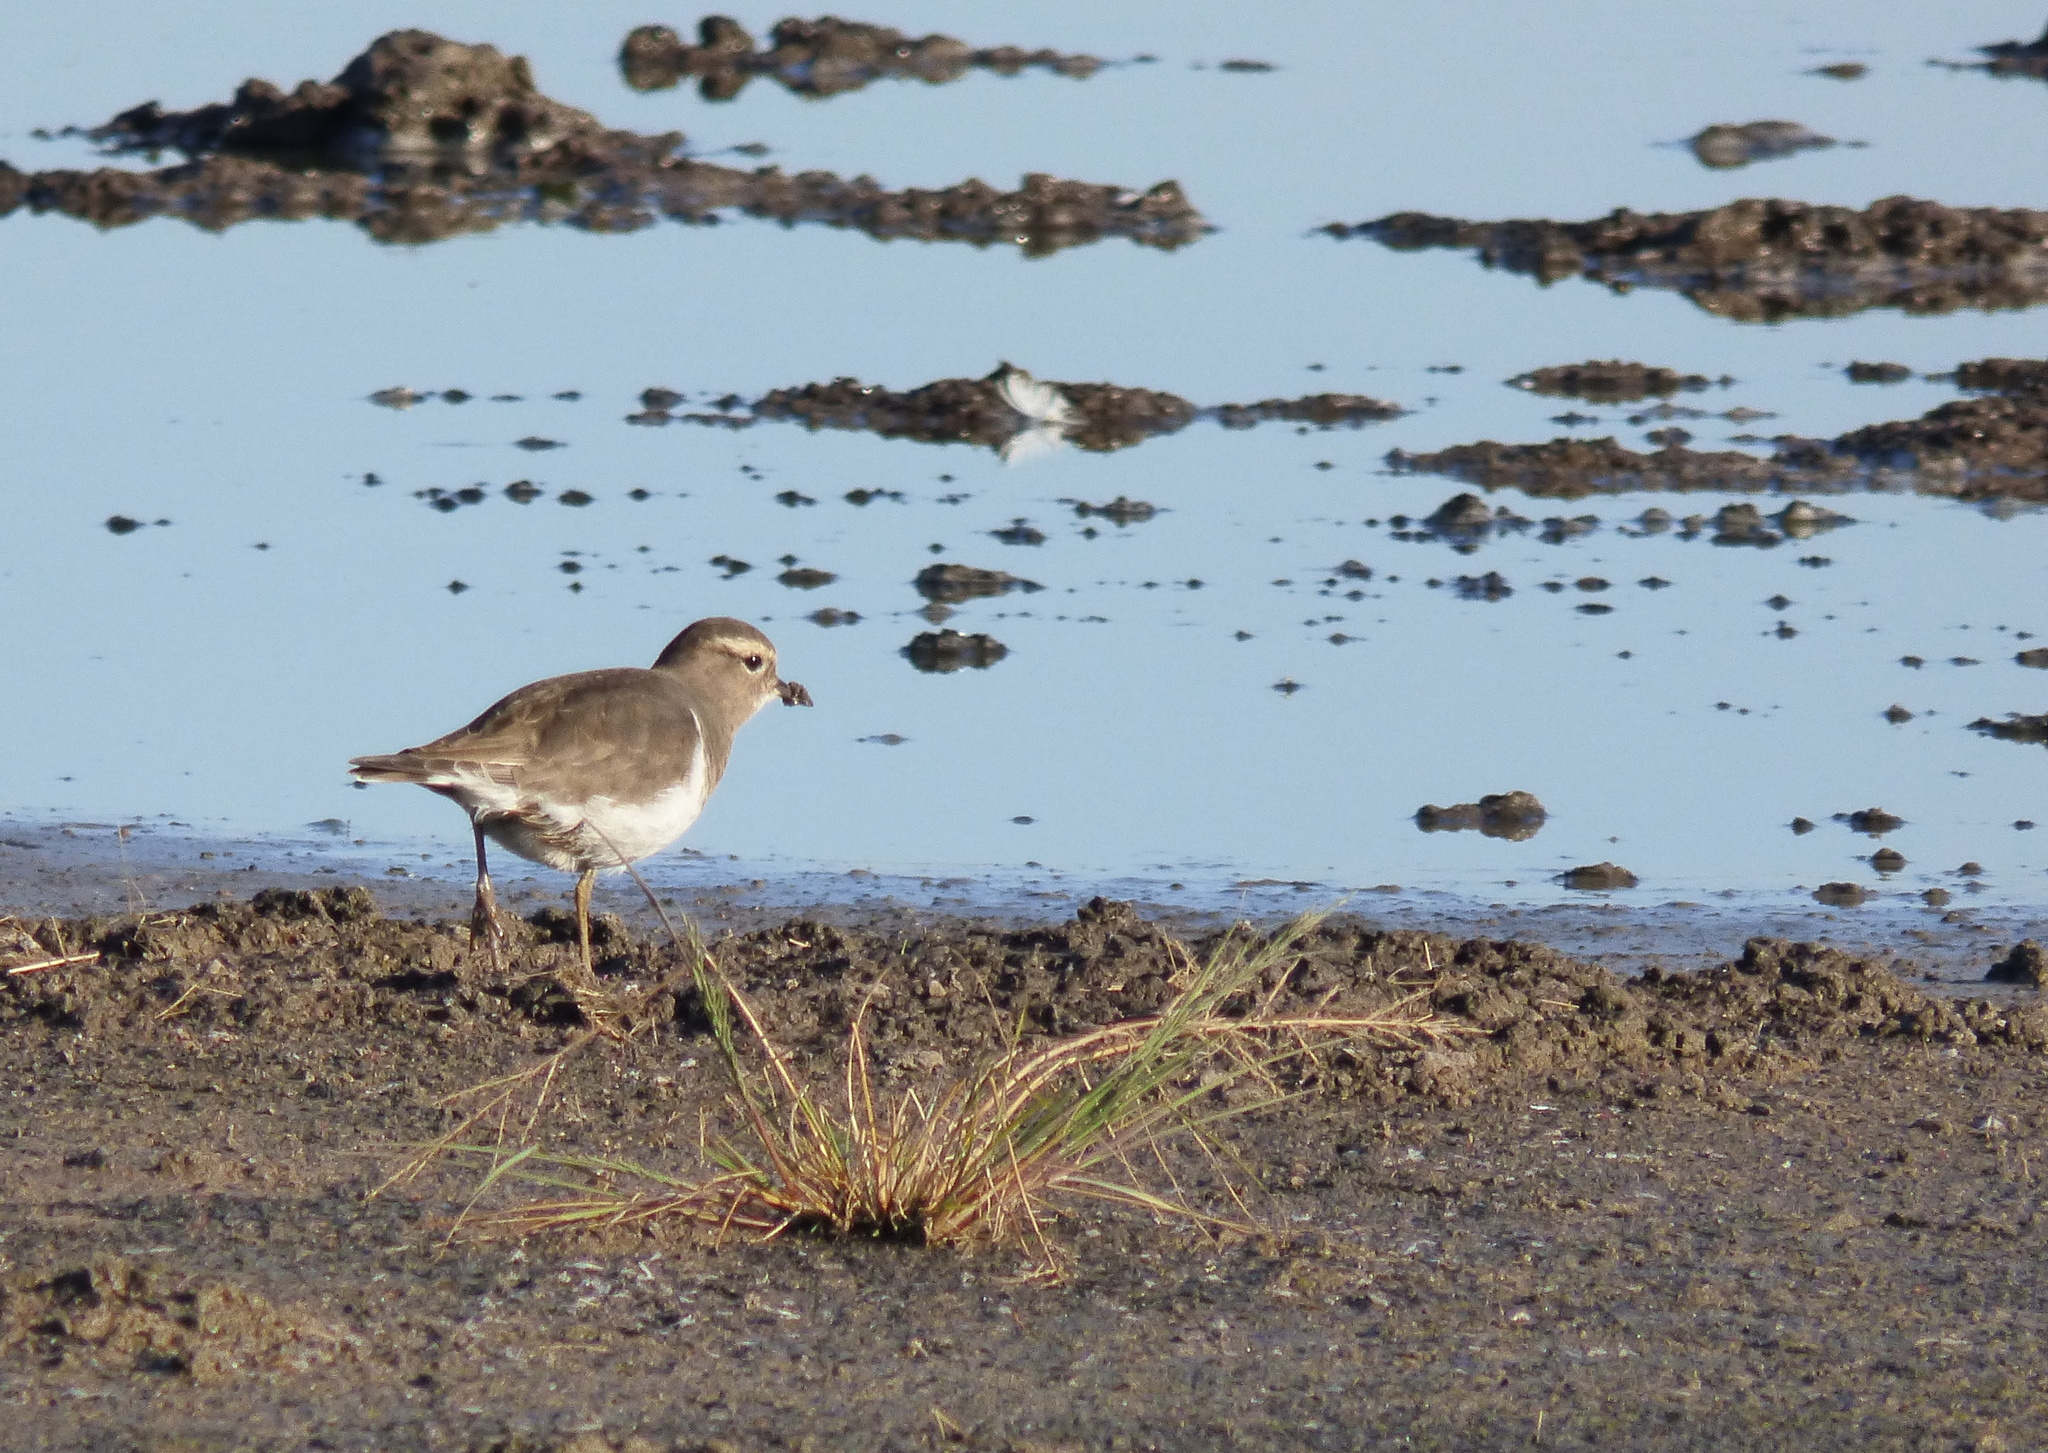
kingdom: Animalia
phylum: Chordata
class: Aves
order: Charadriiformes
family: Charadriidae
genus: Charadrius
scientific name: Charadrius modestus
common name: Rufous-chested plover
